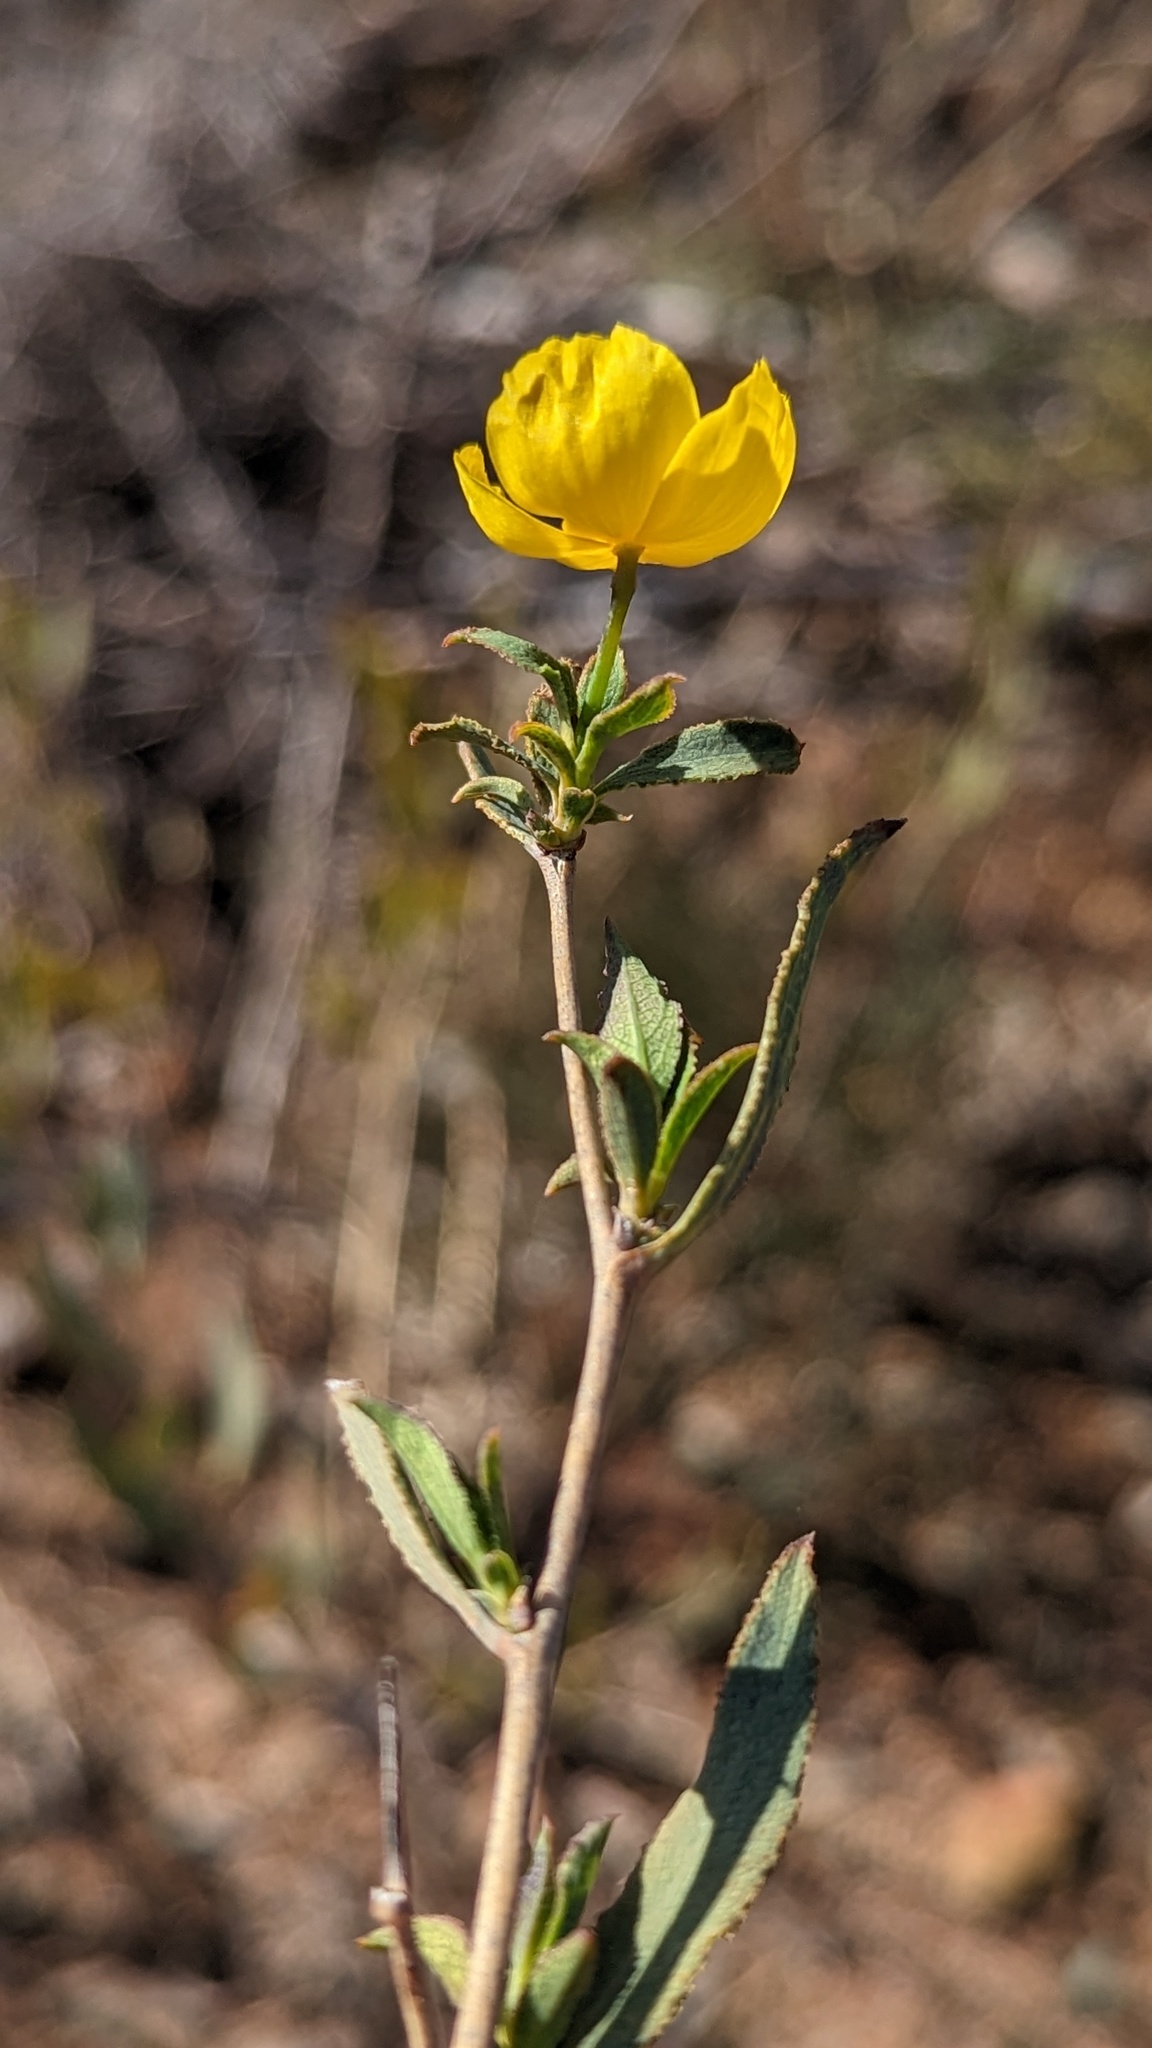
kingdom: Plantae
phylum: Tracheophyta
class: Magnoliopsida
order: Ranunculales
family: Papaveraceae
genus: Dendromecon
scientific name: Dendromecon rigida
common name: Tree poppy
